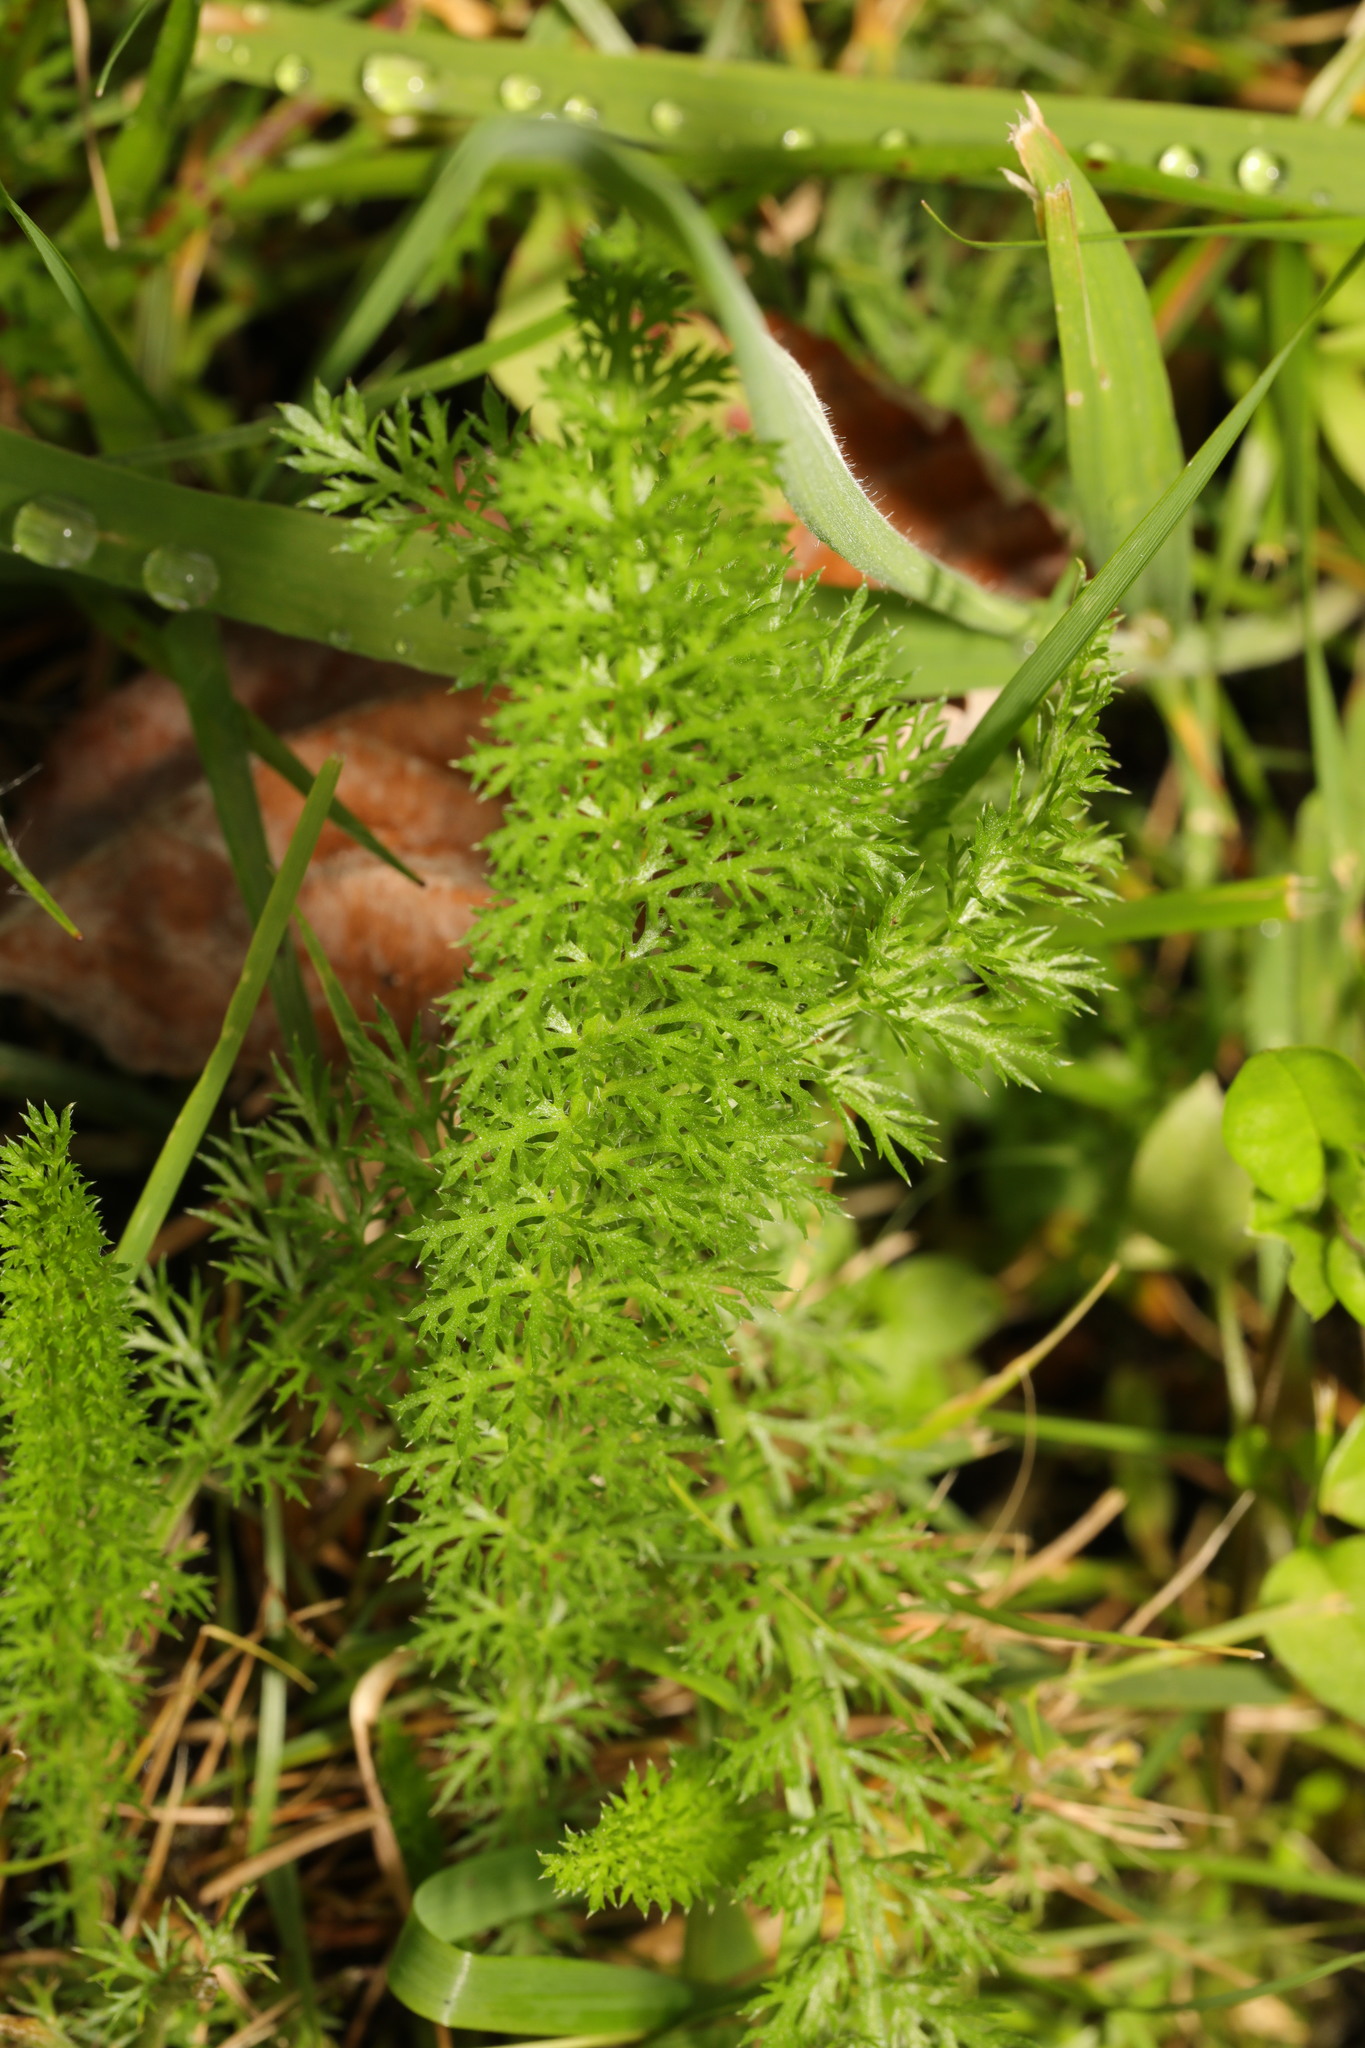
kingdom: Plantae
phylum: Tracheophyta
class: Magnoliopsida
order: Asterales
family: Asteraceae
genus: Achillea
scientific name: Achillea millefolium
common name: Yarrow
